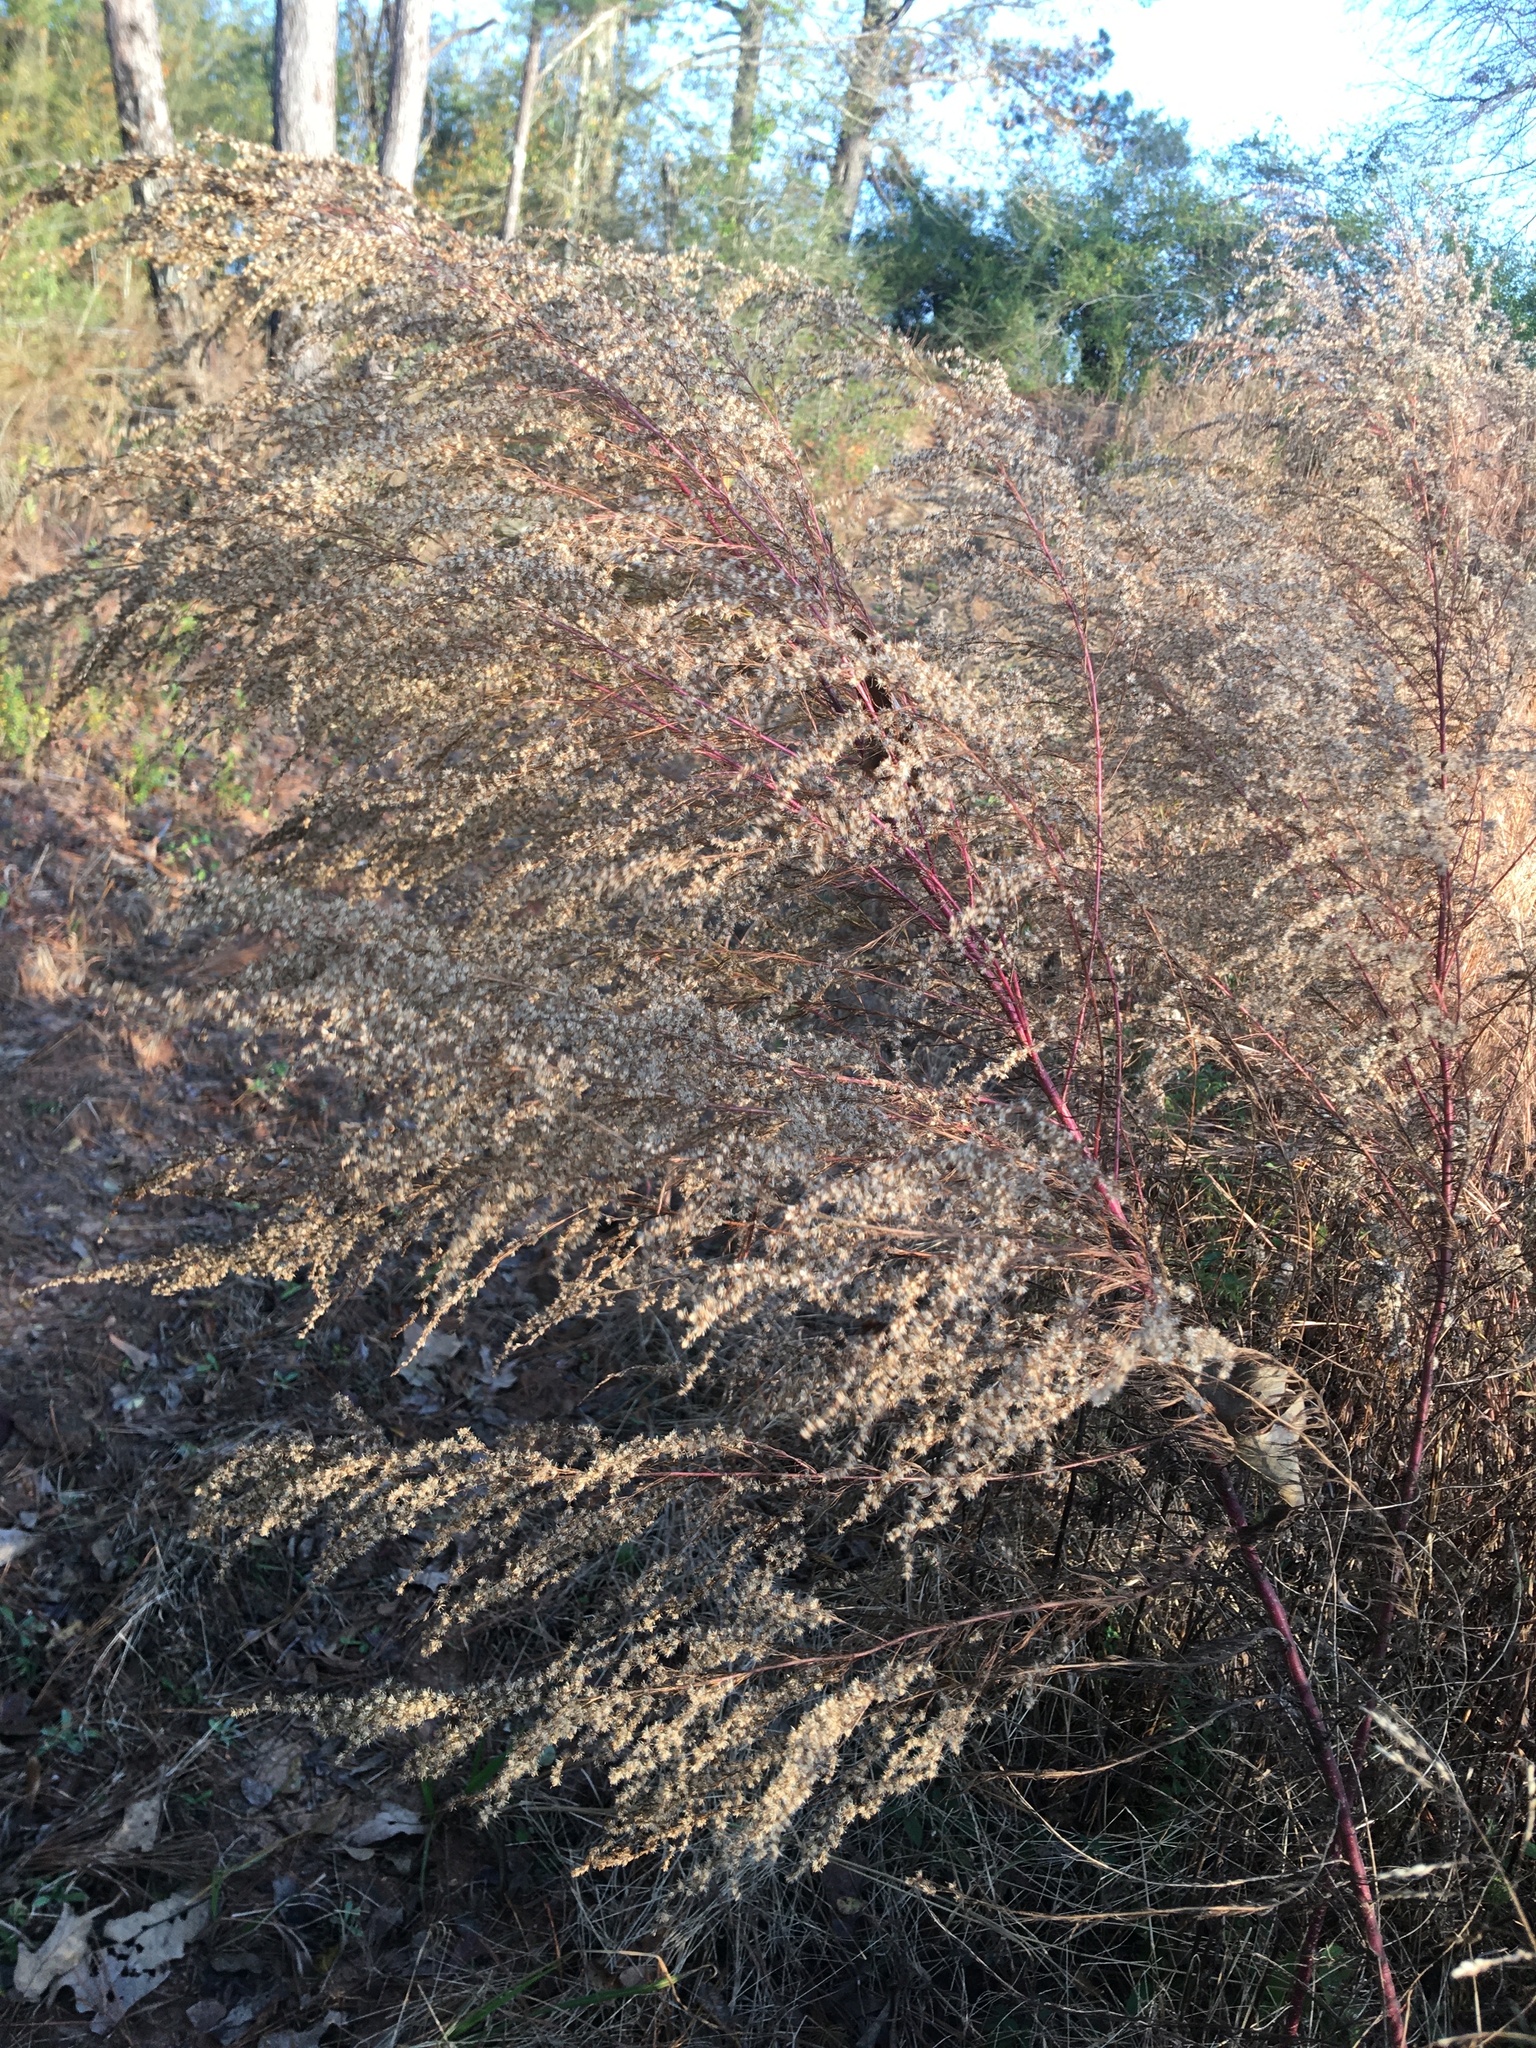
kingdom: Plantae
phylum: Tracheophyta
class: Magnoliopsida
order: Asterales
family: Asteraceae
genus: Eupatorium
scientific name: Eupatorium capillifolium
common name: Dog-fennel
